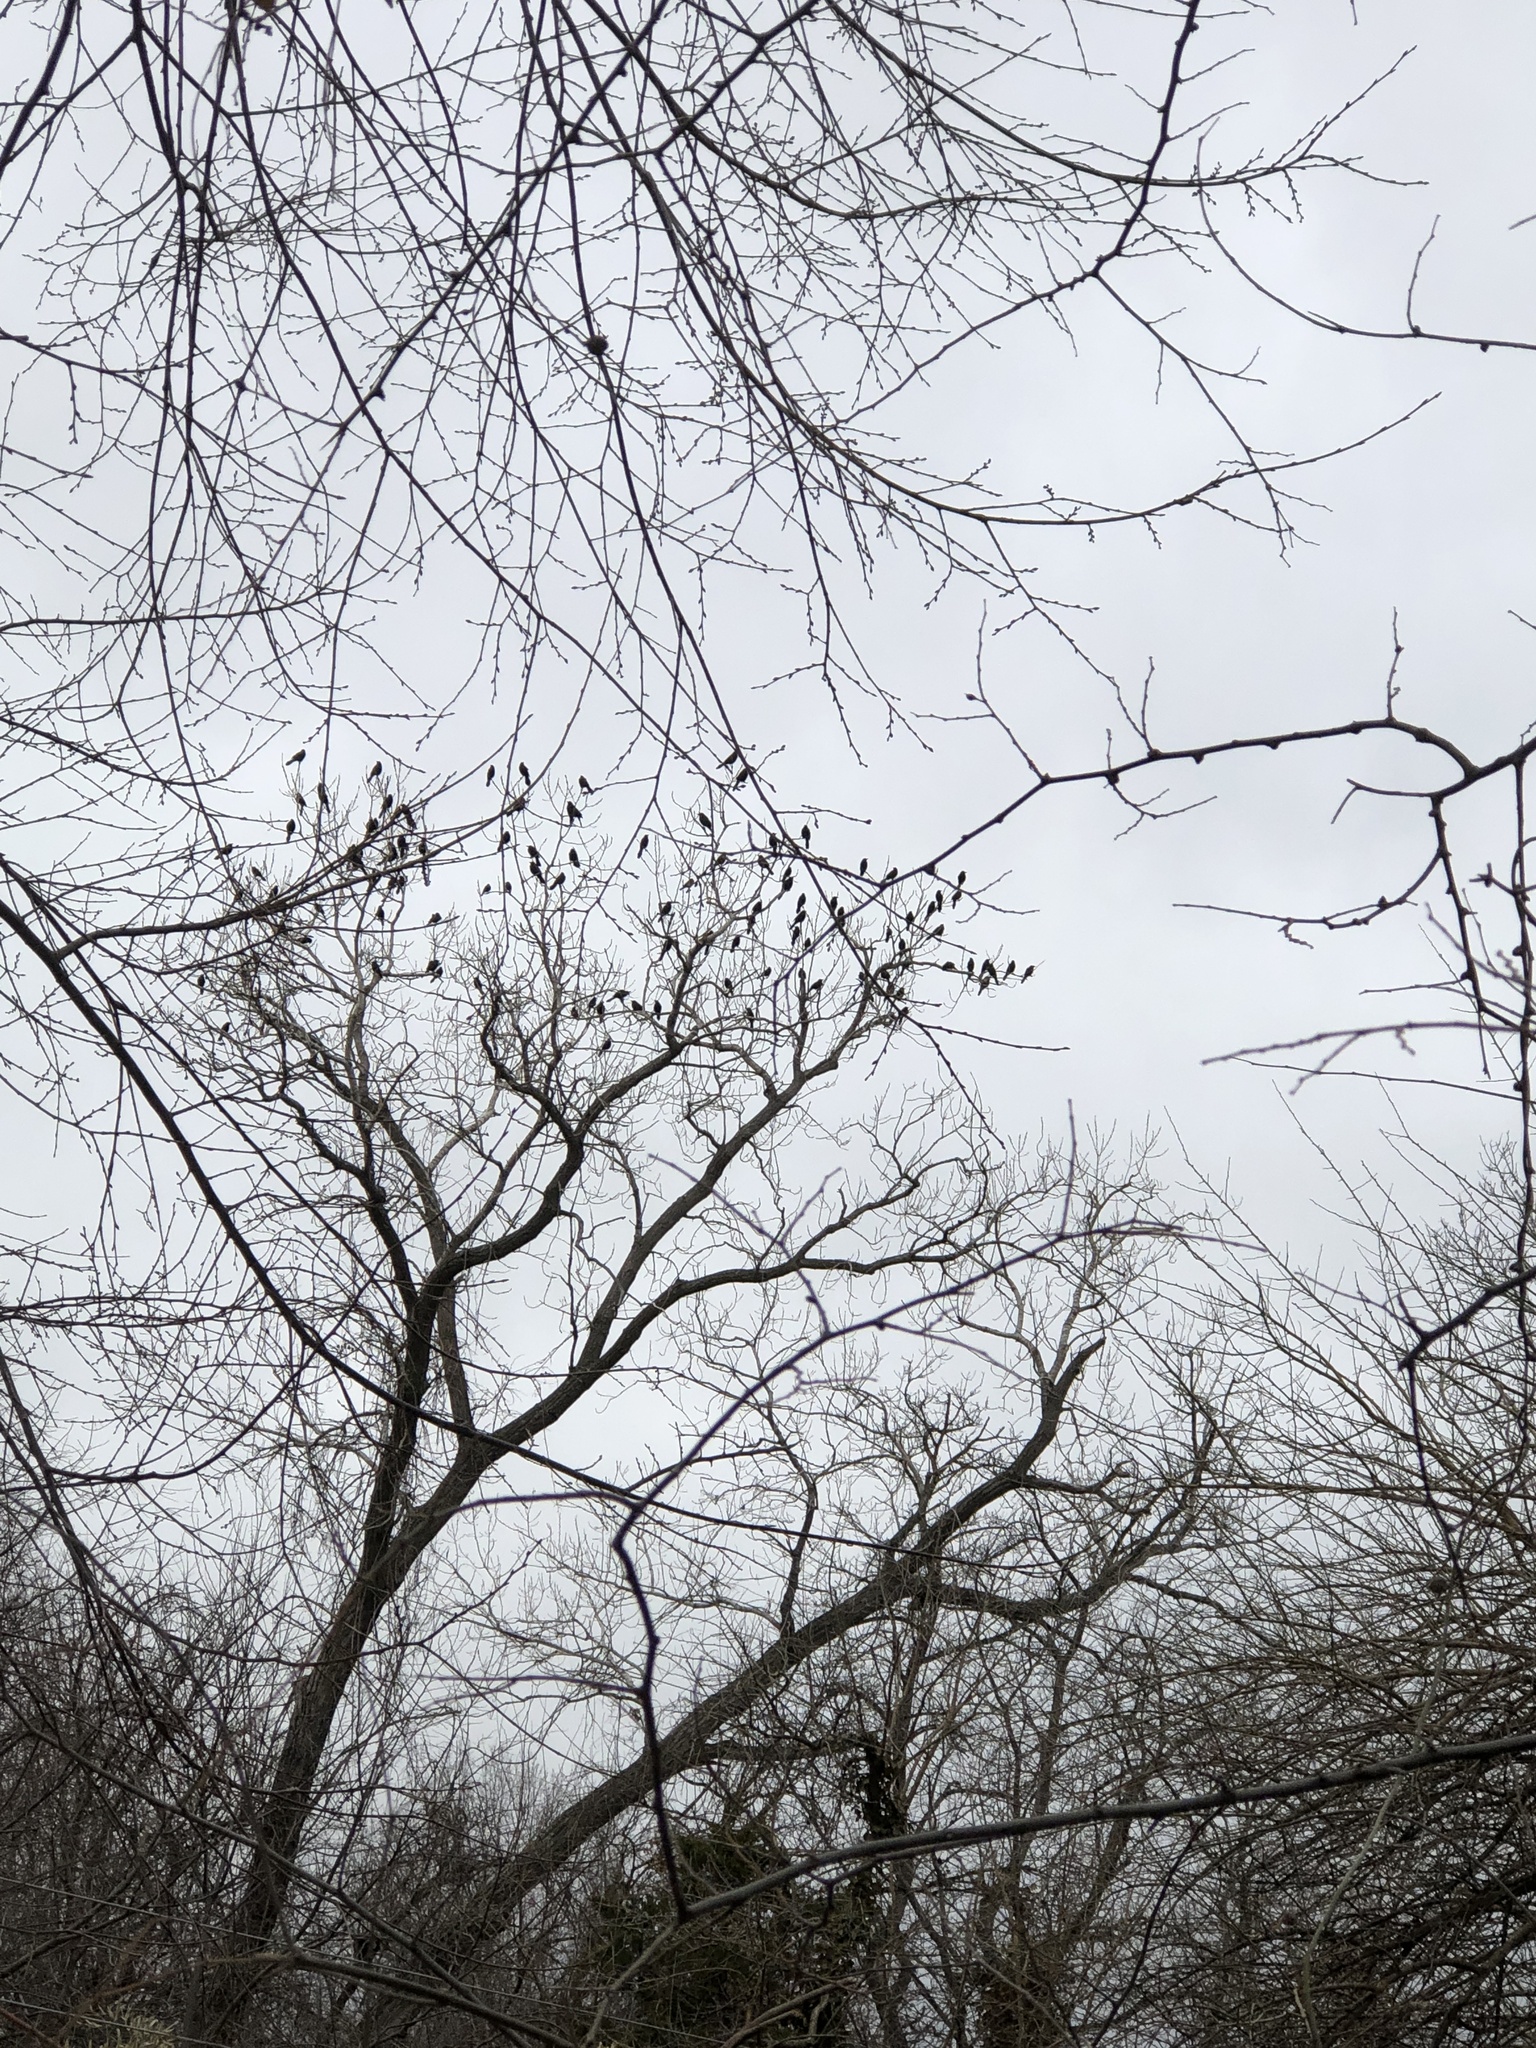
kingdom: Animalia
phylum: Chordata
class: Aves
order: Passeriformes
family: Icteridae
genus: Quiscalus
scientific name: Quiscalus quiscula
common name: Common grackle
